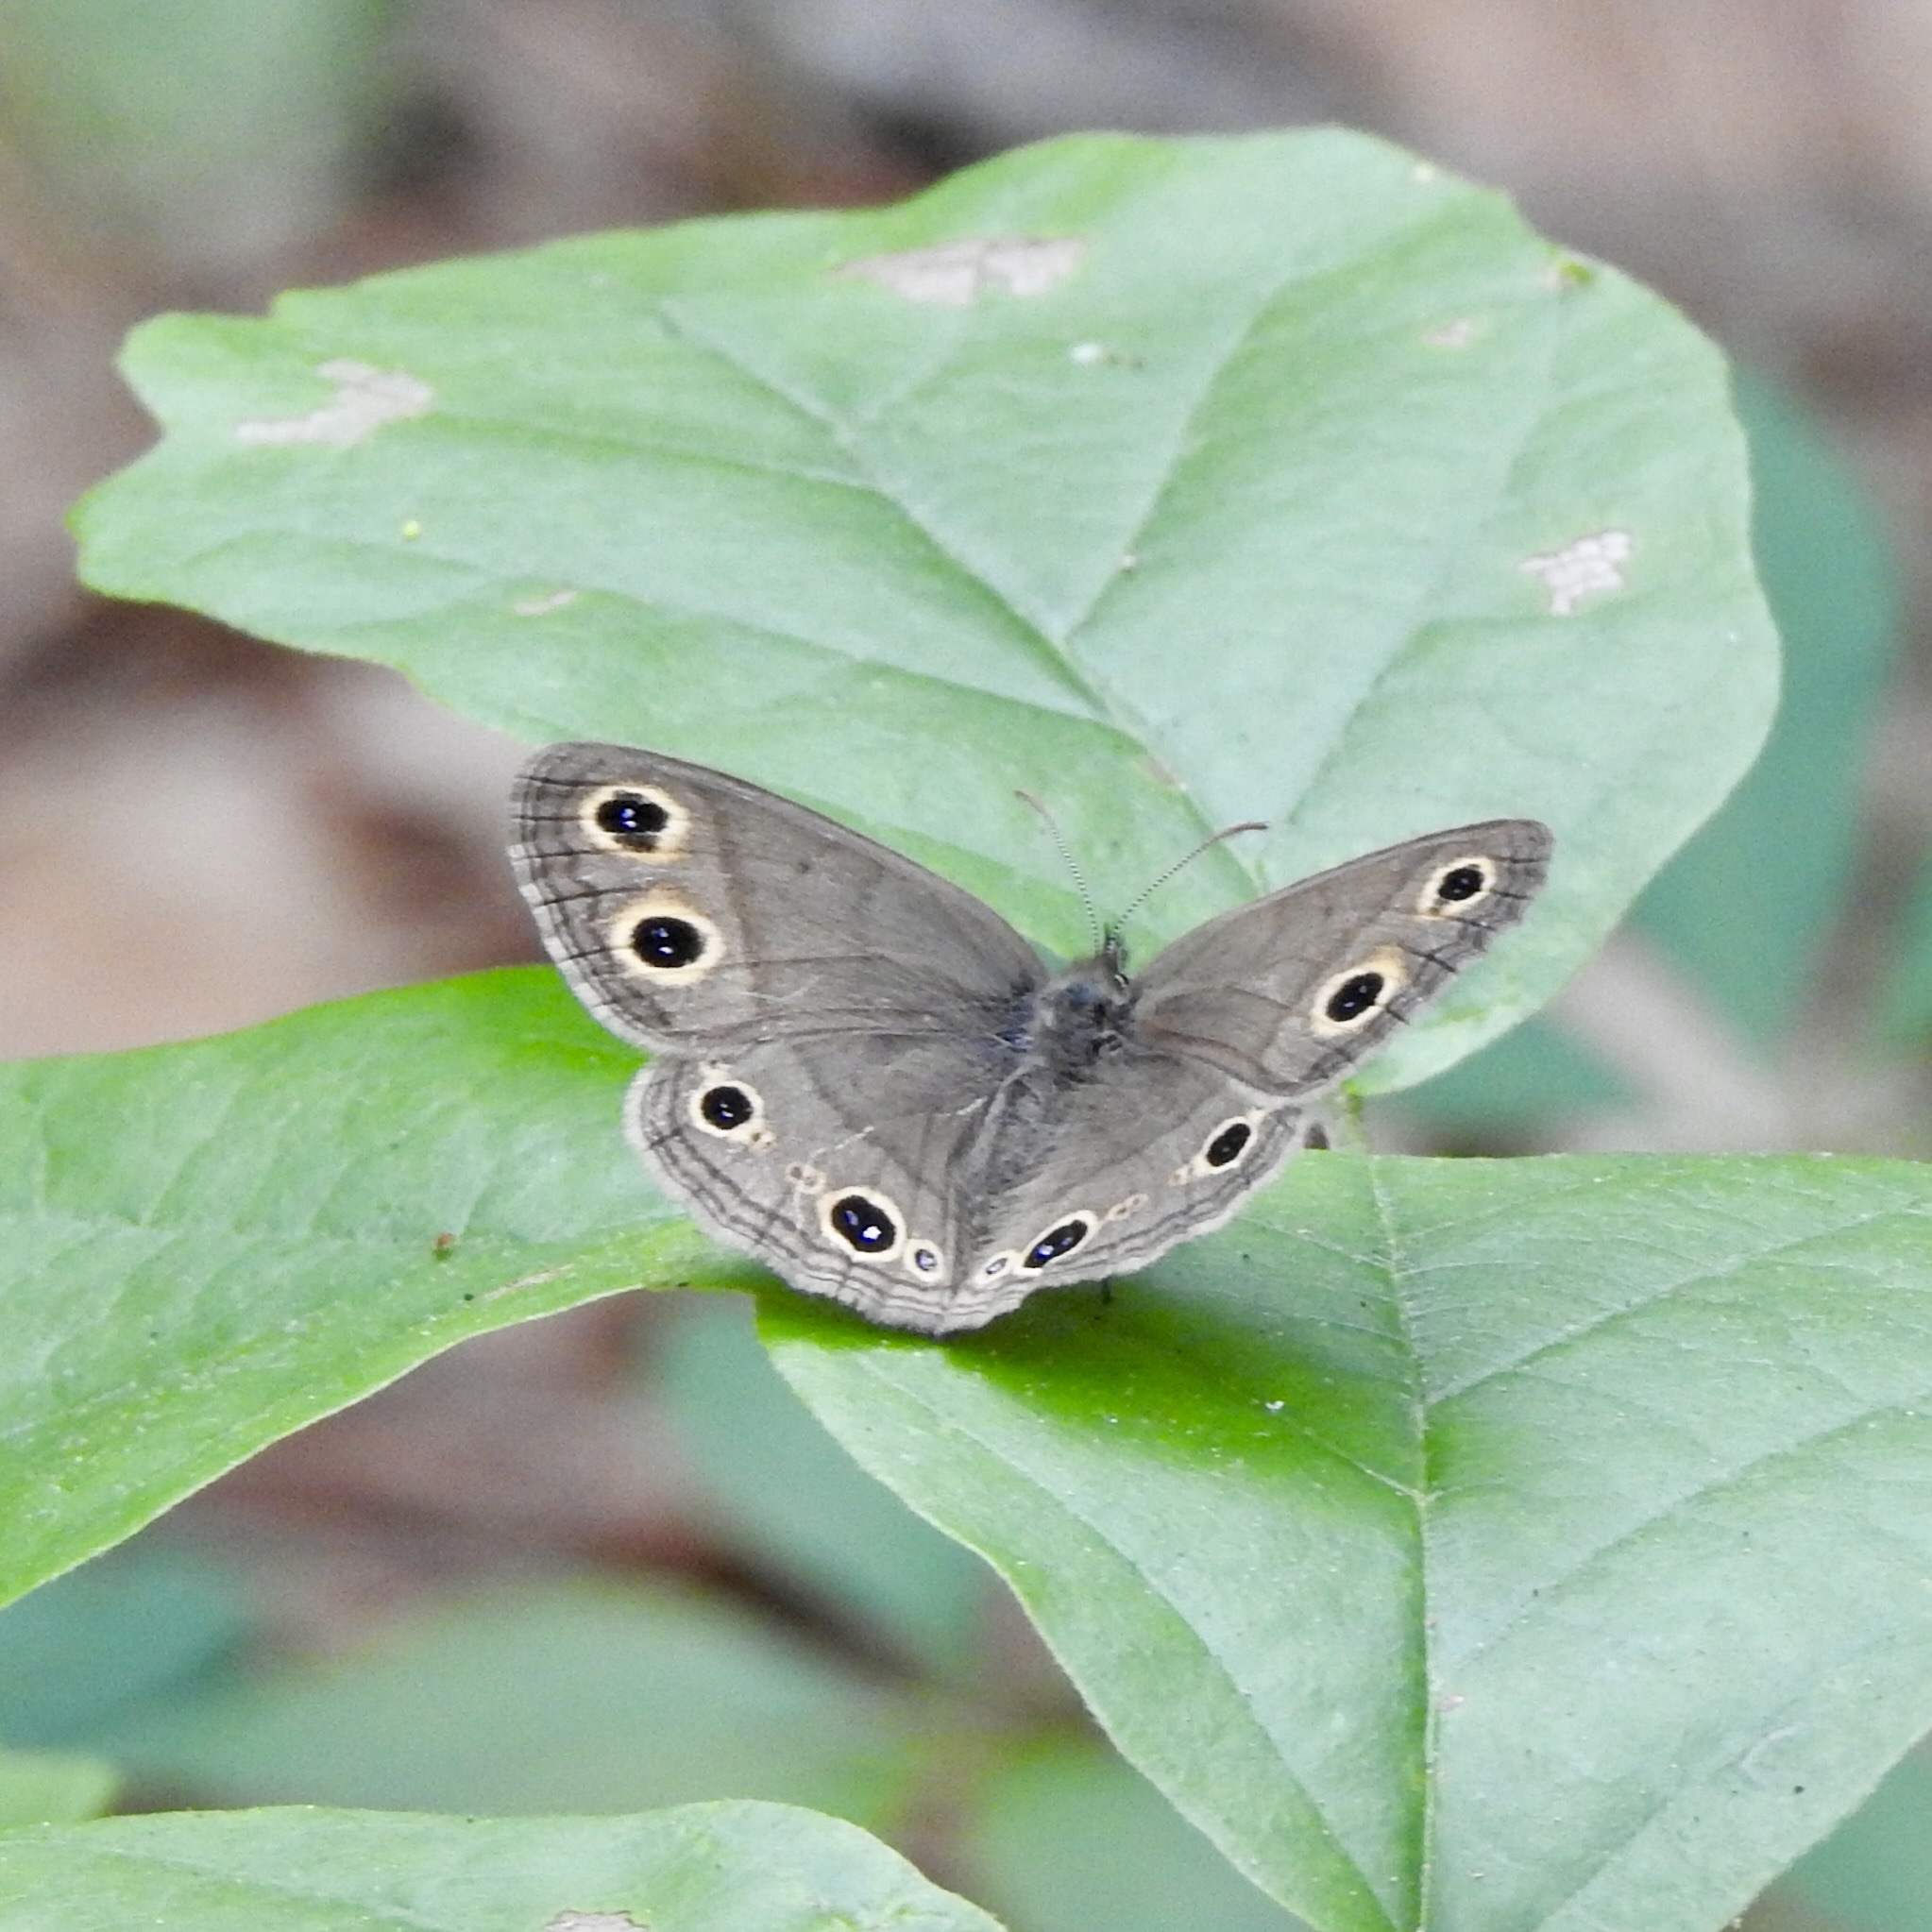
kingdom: Animalia
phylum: Arthropoda
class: Insecta
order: Lepidoptera
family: Nymphalidae
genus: Euptychia
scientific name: Euptychia cymela
